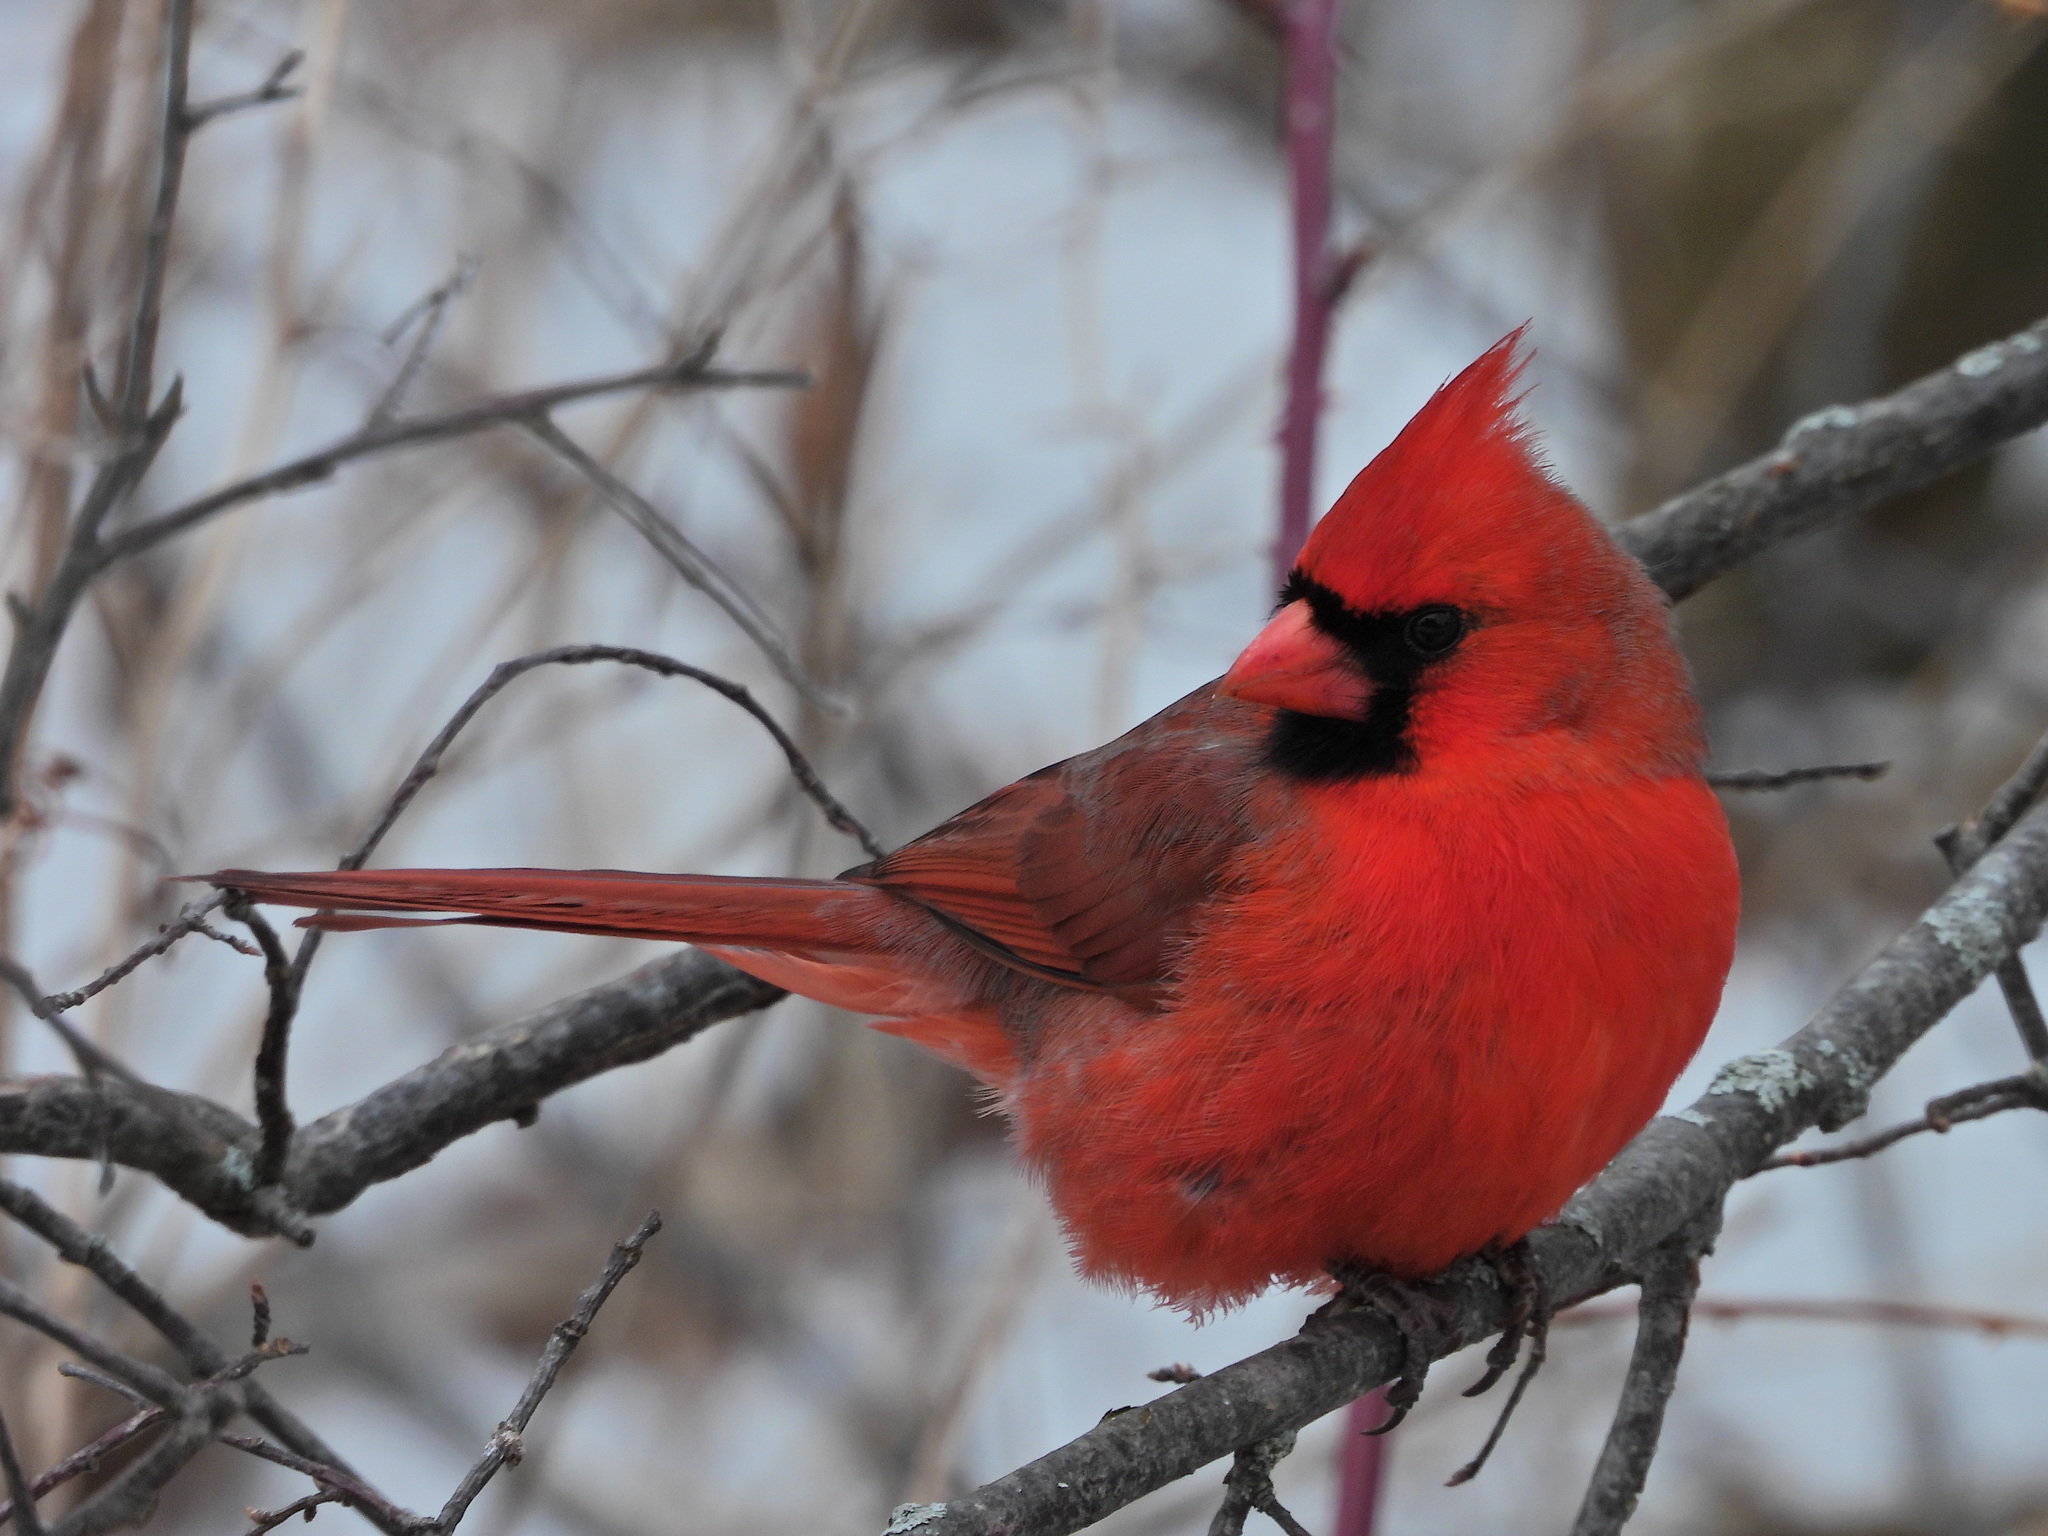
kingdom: Animalia
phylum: Chordata
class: Aves
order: Passeriformes
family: Cardinalidae
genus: Cardinalis
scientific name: Cardinalis cardinalis
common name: Northern cardinal
